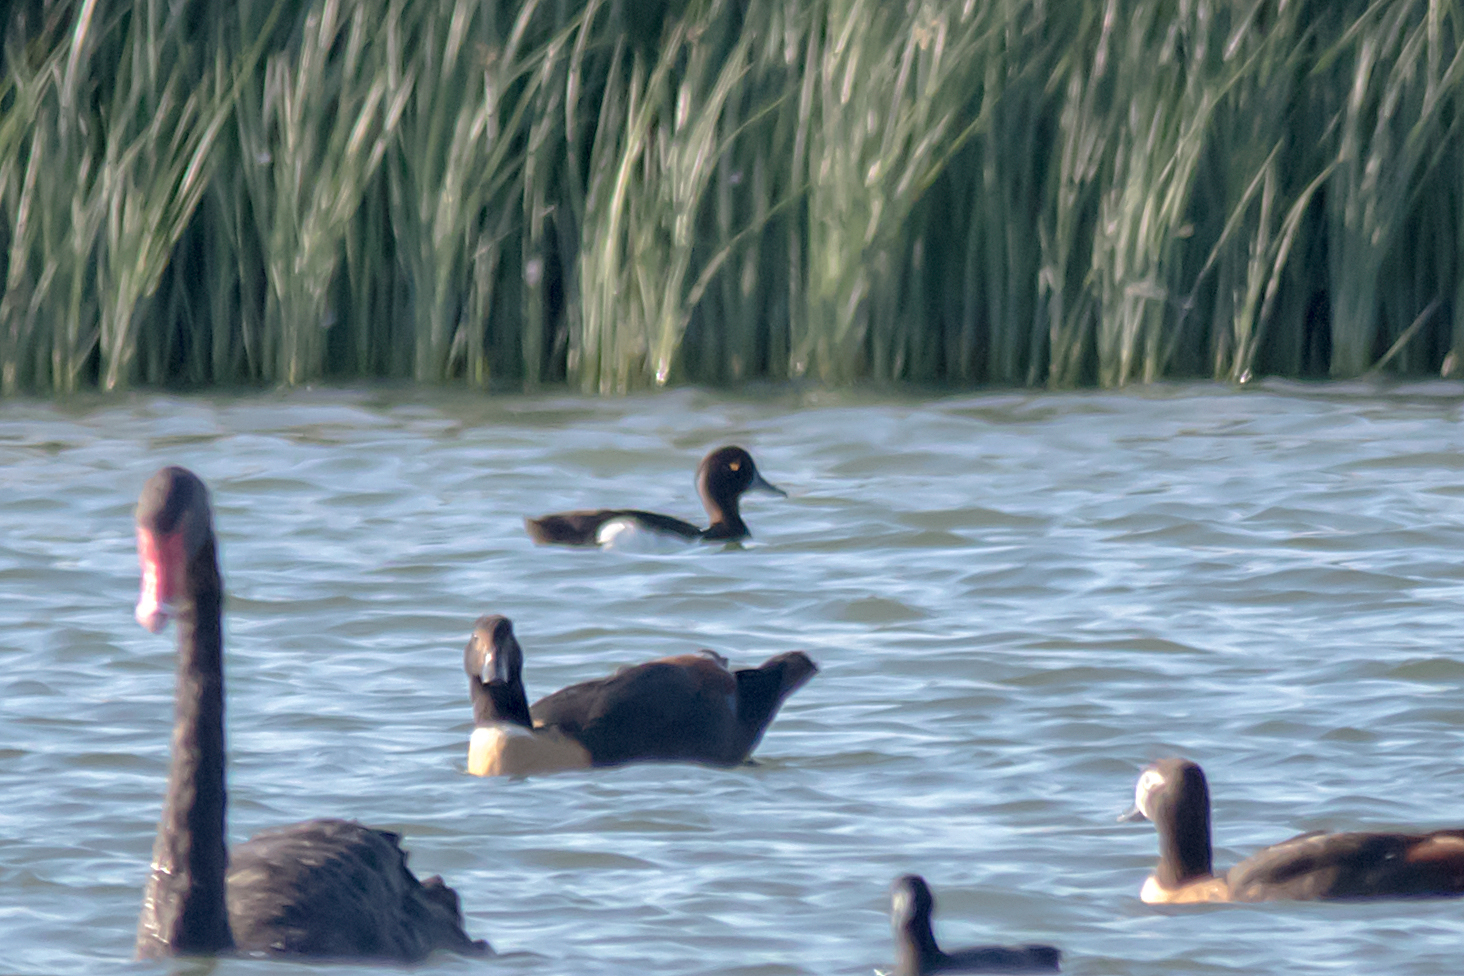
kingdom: Animalia
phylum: Chordata
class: Aves
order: Anseriformes
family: Anatidae
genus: Aythya
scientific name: Aythya fuligula
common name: Tufted duck
